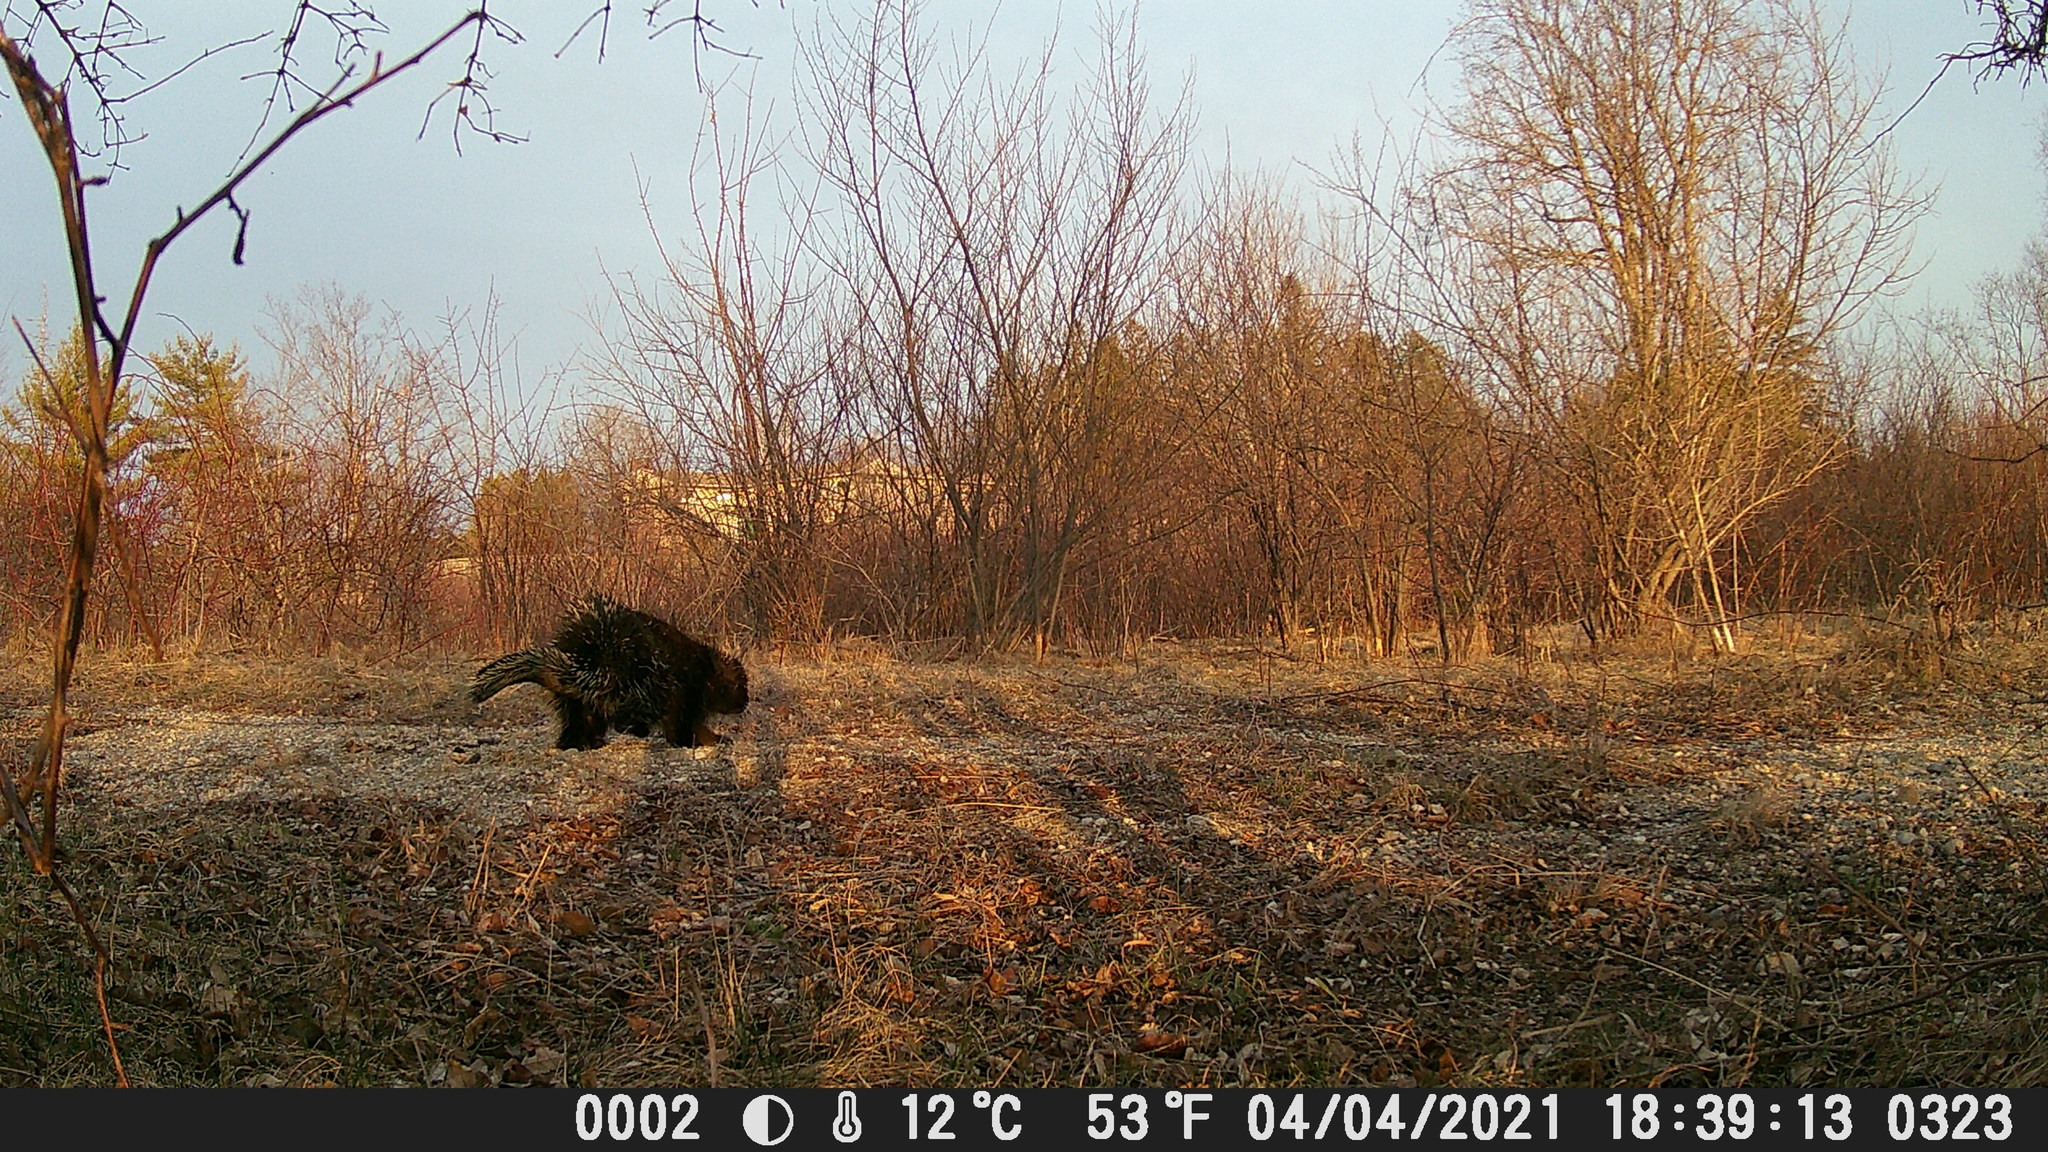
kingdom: Animalia
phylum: Chordata
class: Mammalia
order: Rodentia
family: Erethizontidae
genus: Erethizon
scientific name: Erethizon dorsatus
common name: North american porcupine
